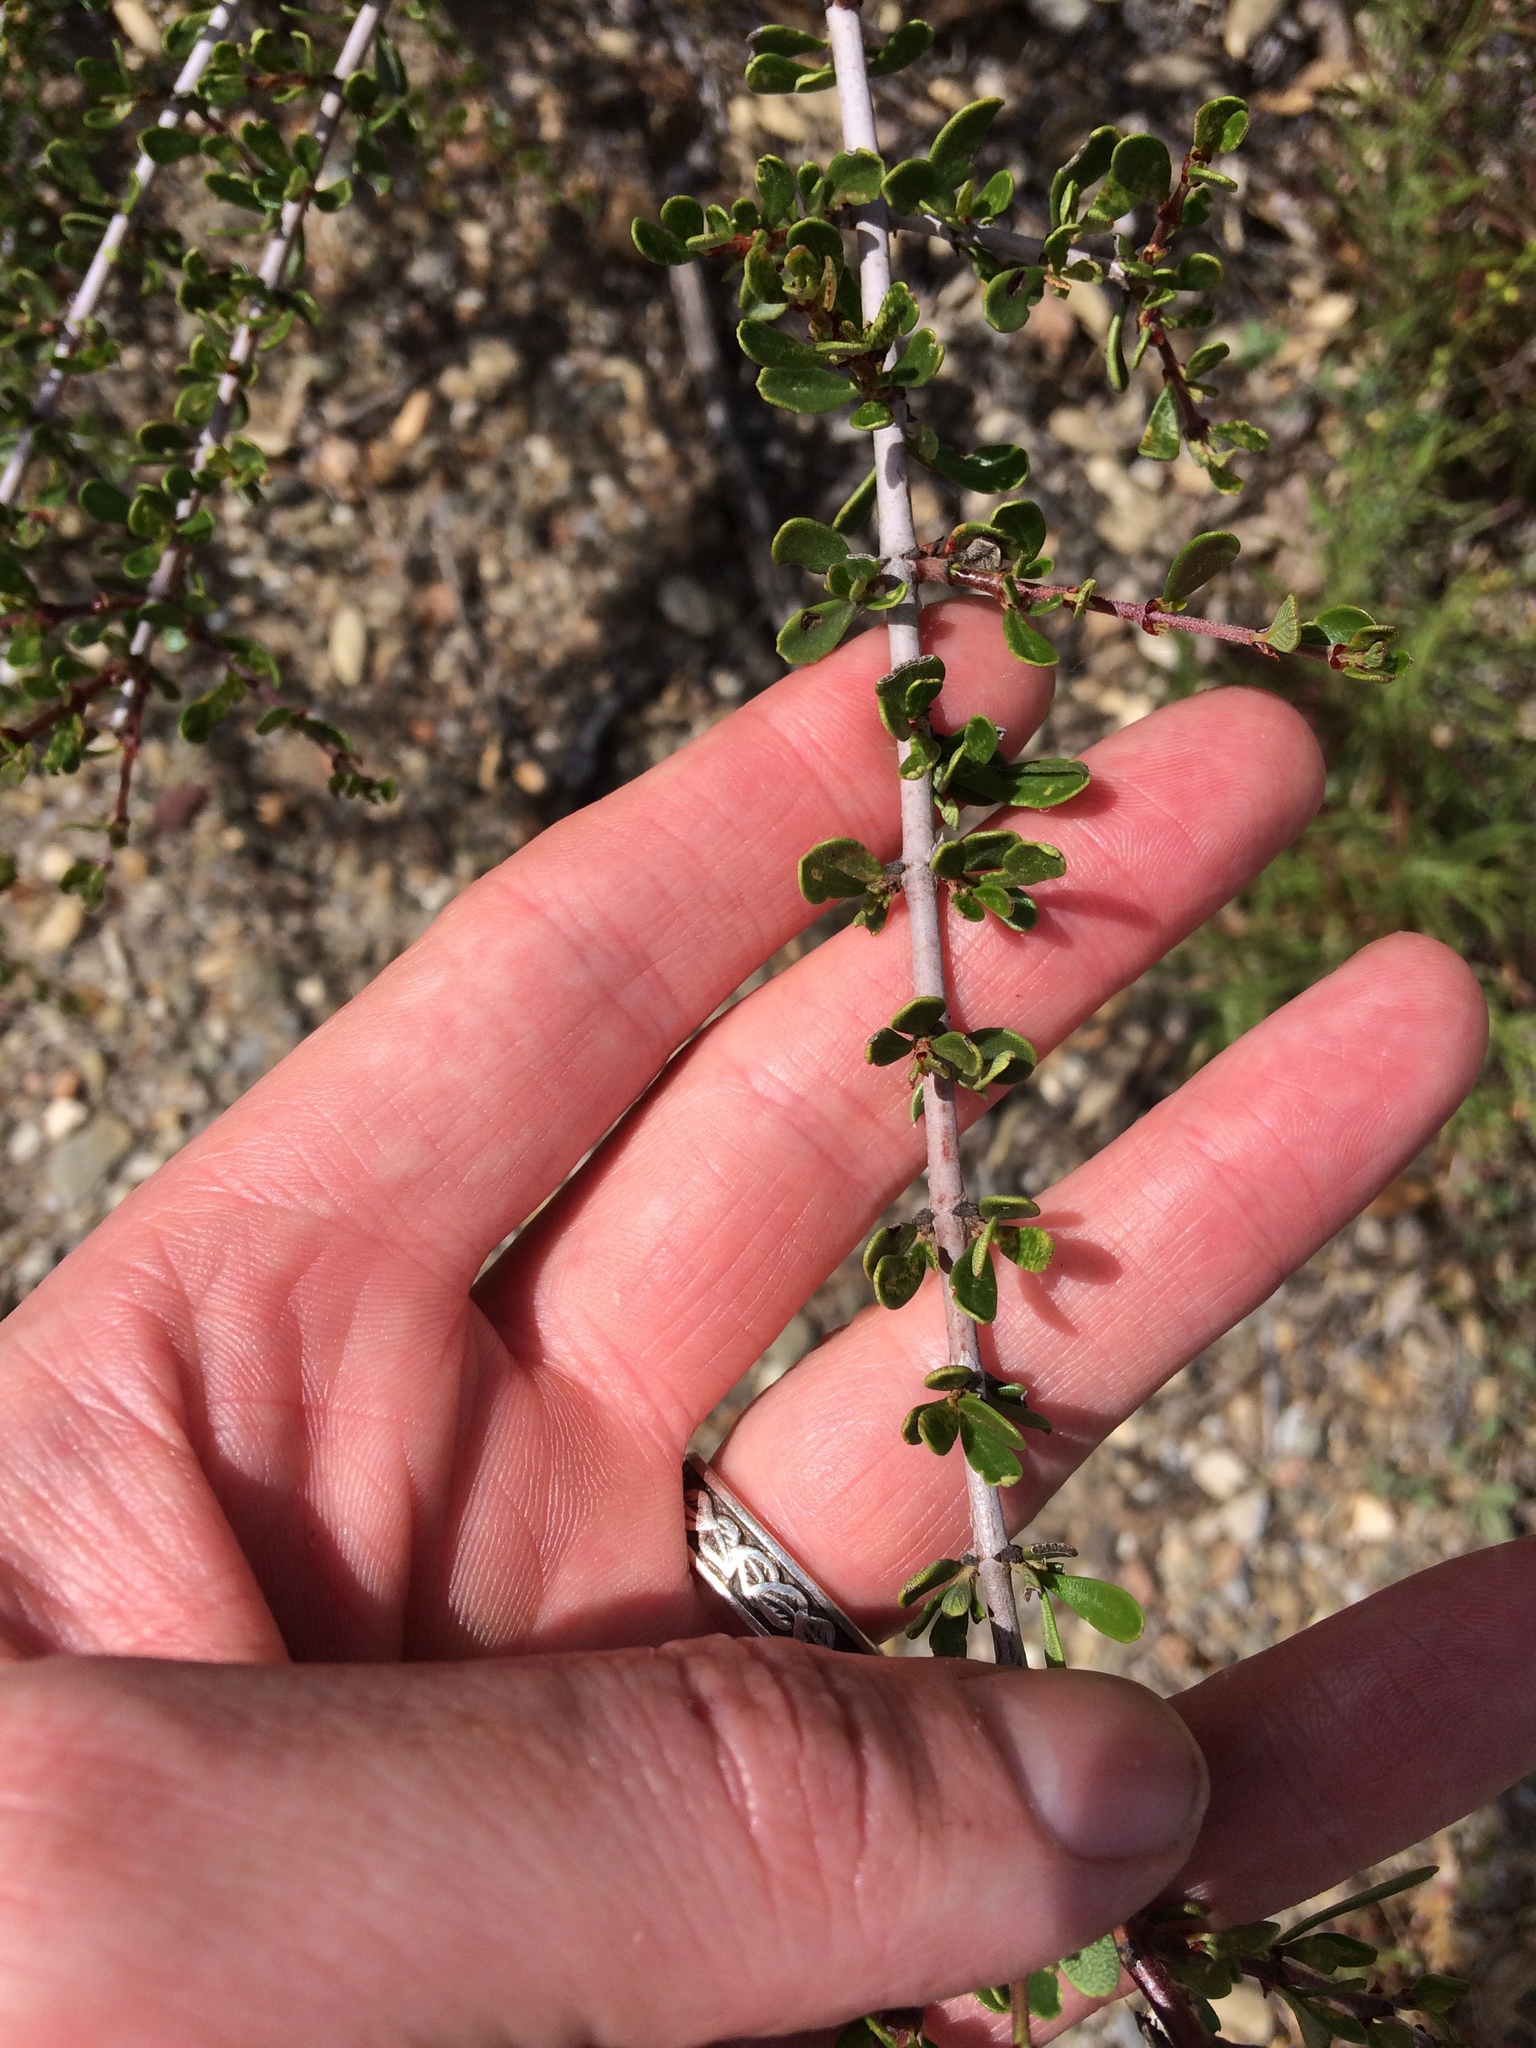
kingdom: Plantae
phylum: Tracheophyta
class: Magnoliopsida
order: Rosales
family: Rhamnaceae
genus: Ceanothus
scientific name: Ceanothus cuneatus
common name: Cuneate ceanothus
